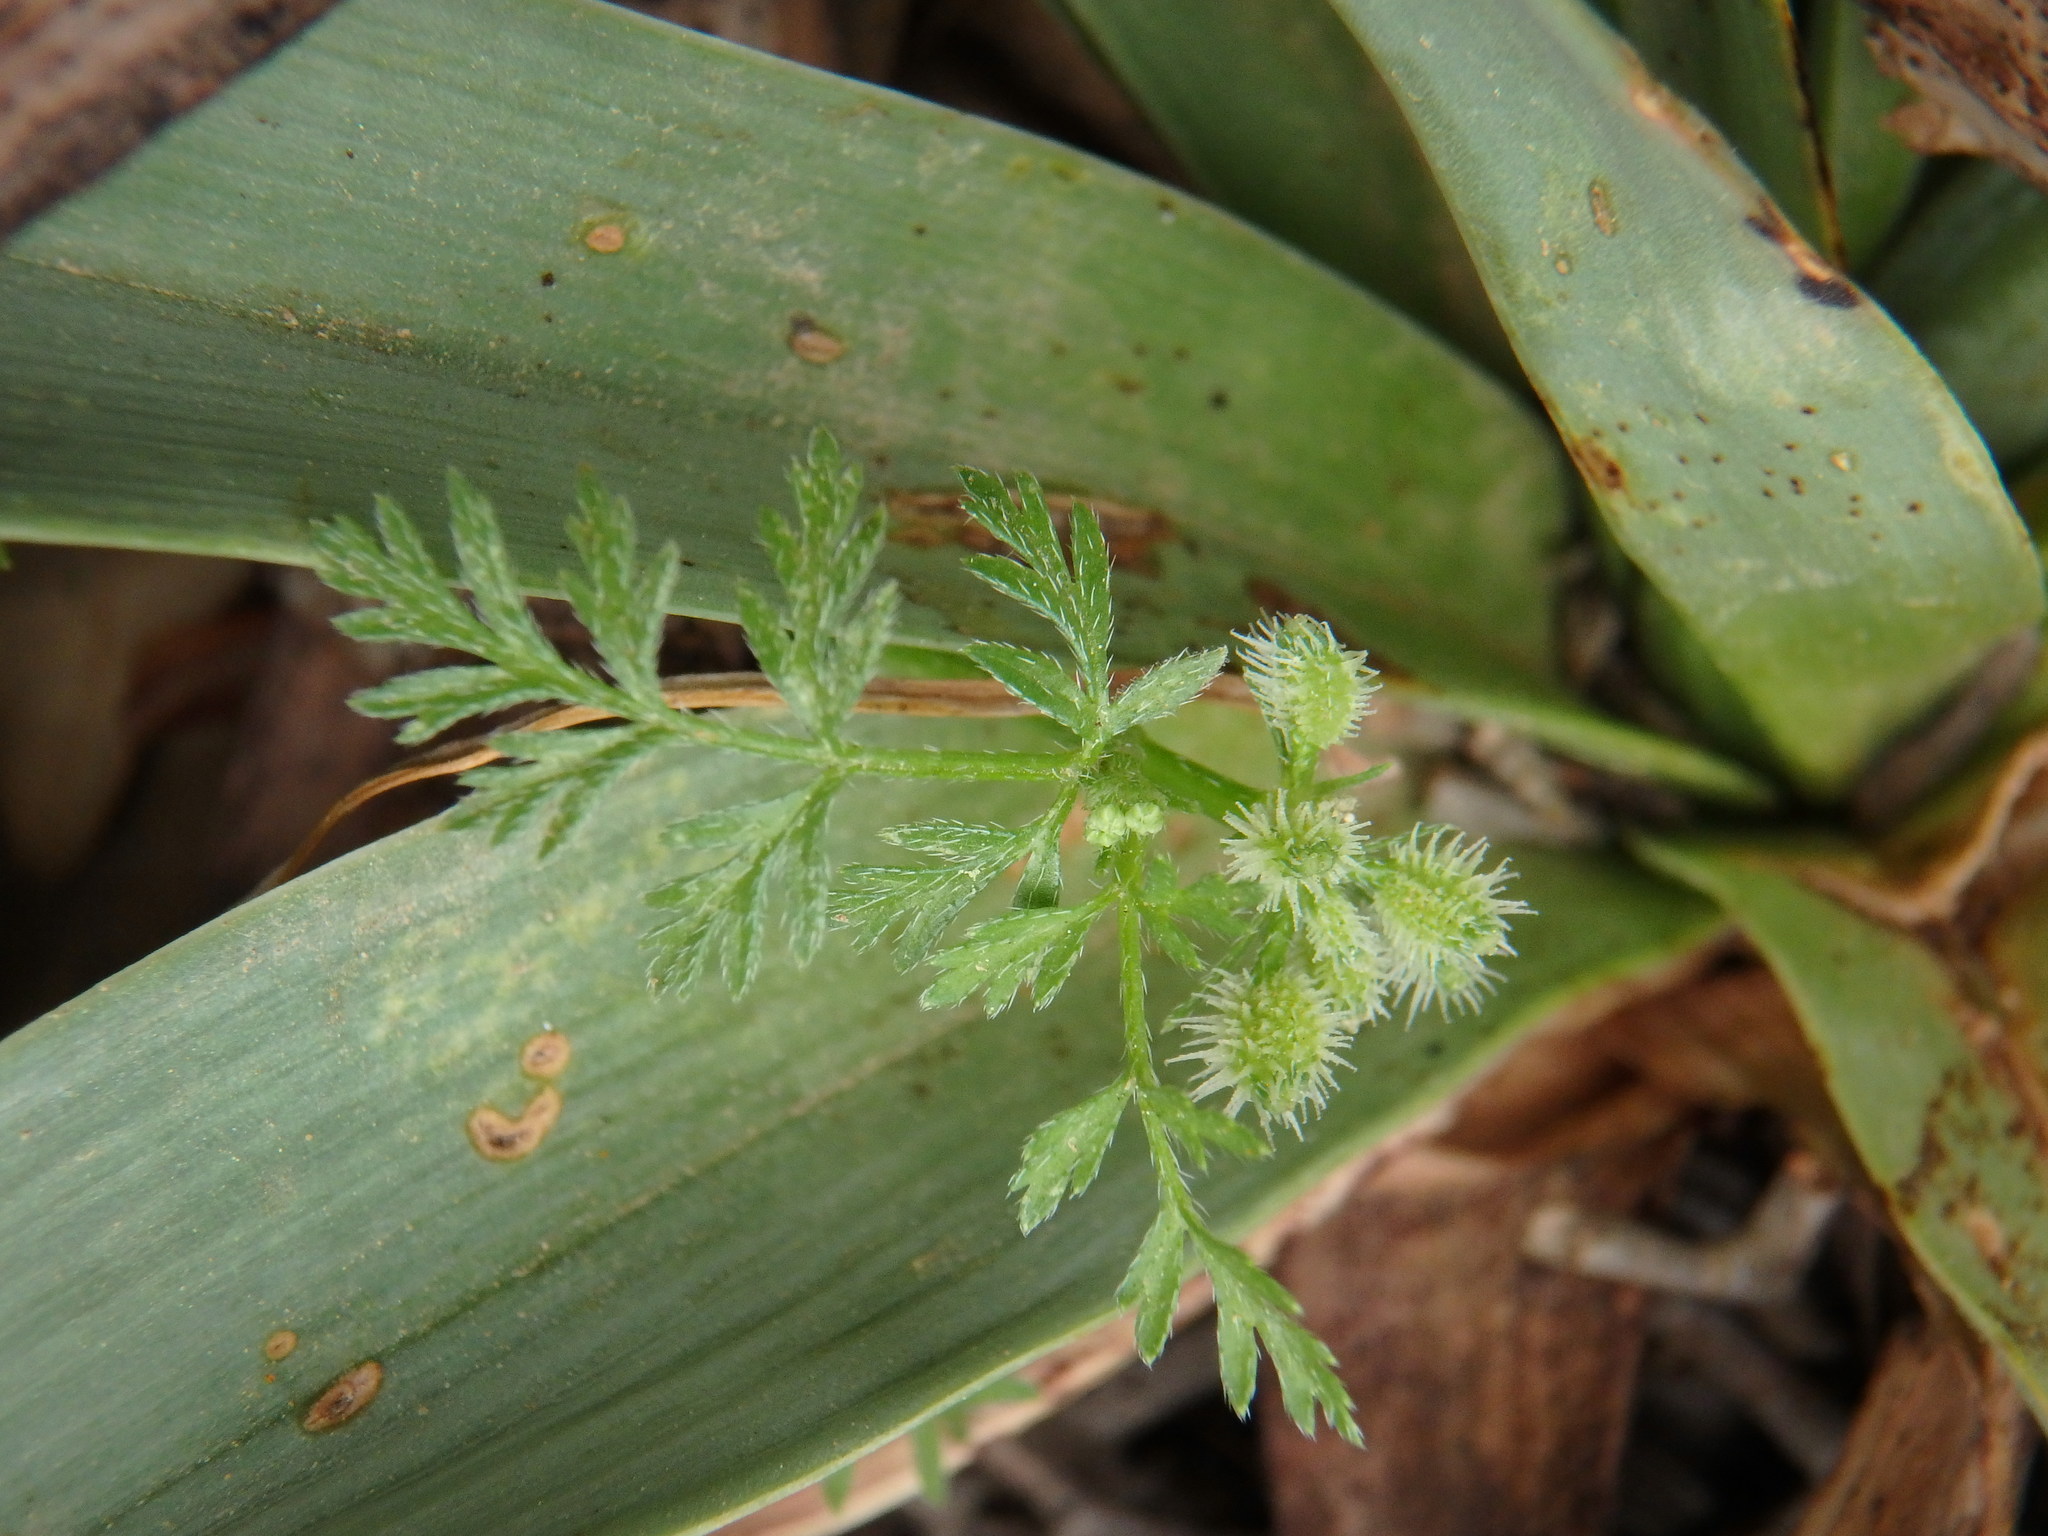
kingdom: Plantae
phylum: Tracheophyta
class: Magnoliopsida
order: Apiales
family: Apiaceae
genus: Torilis
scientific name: Torilis nodosa
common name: Knotted hedge-parsley
